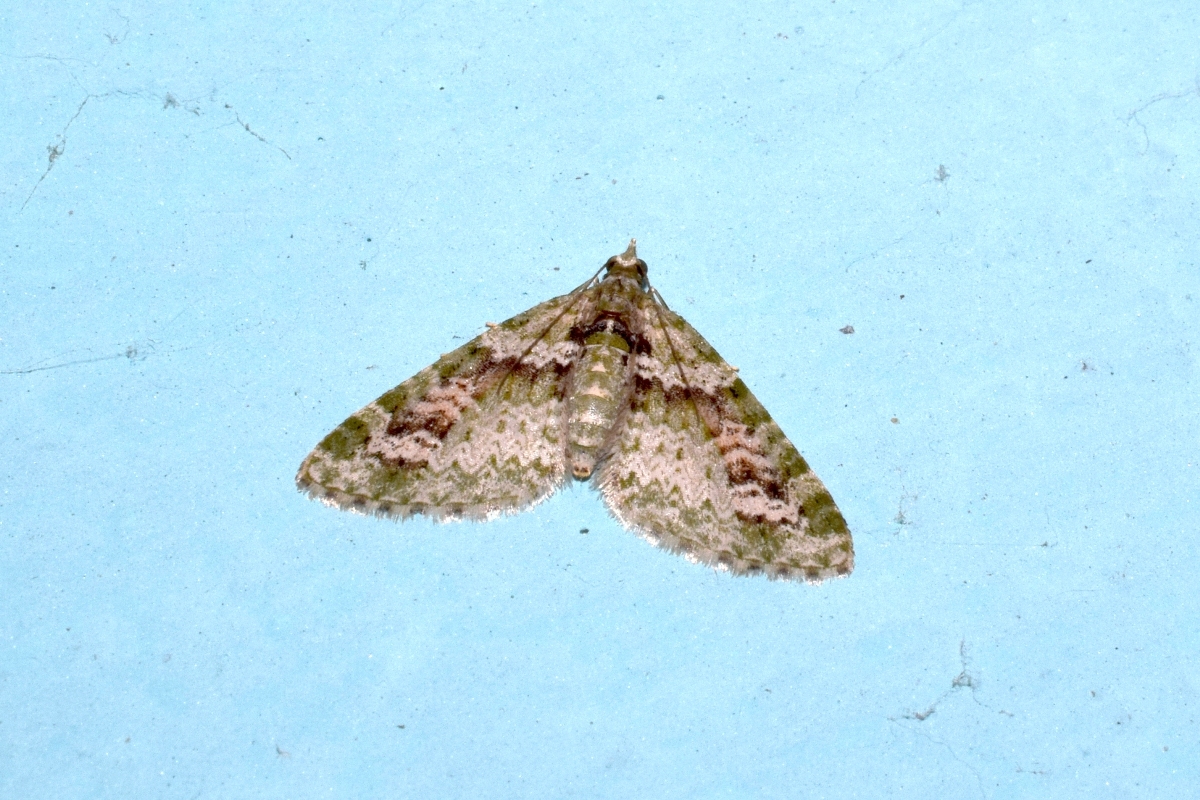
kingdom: Animalia
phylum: Arthropoda
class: Insecta
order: Lepidoptera
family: Geometridae
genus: Chloroclystis
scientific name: Chloroclystis rubroviridis
